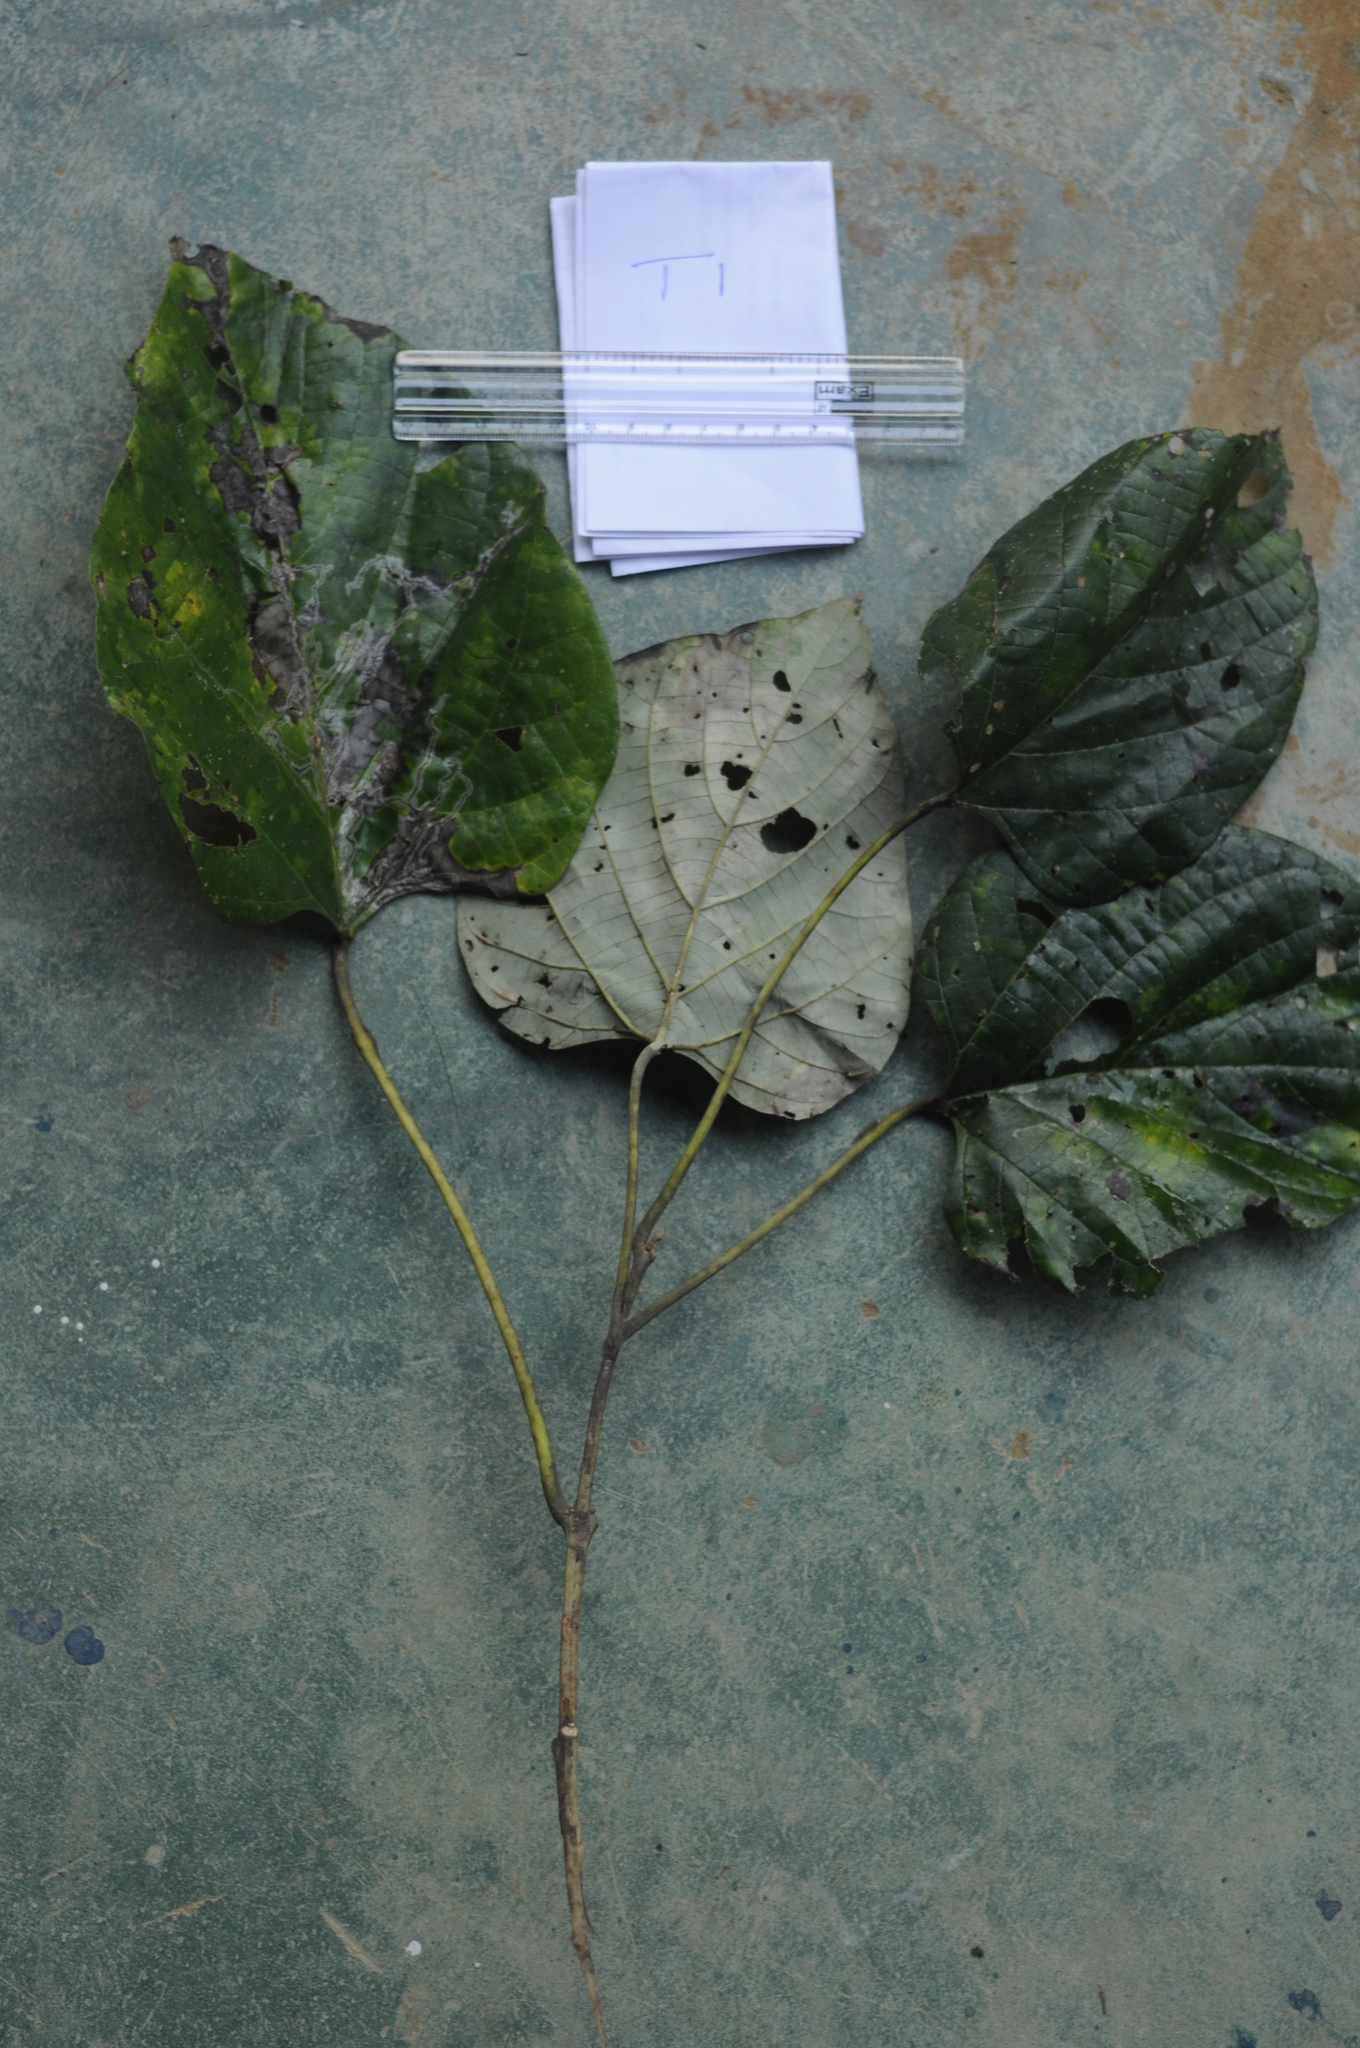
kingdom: Plantae
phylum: Tracheophyta
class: Magnoliopsida
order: Lamiales
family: Lamiaceae
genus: Gmelina
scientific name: Gmelina arborea
